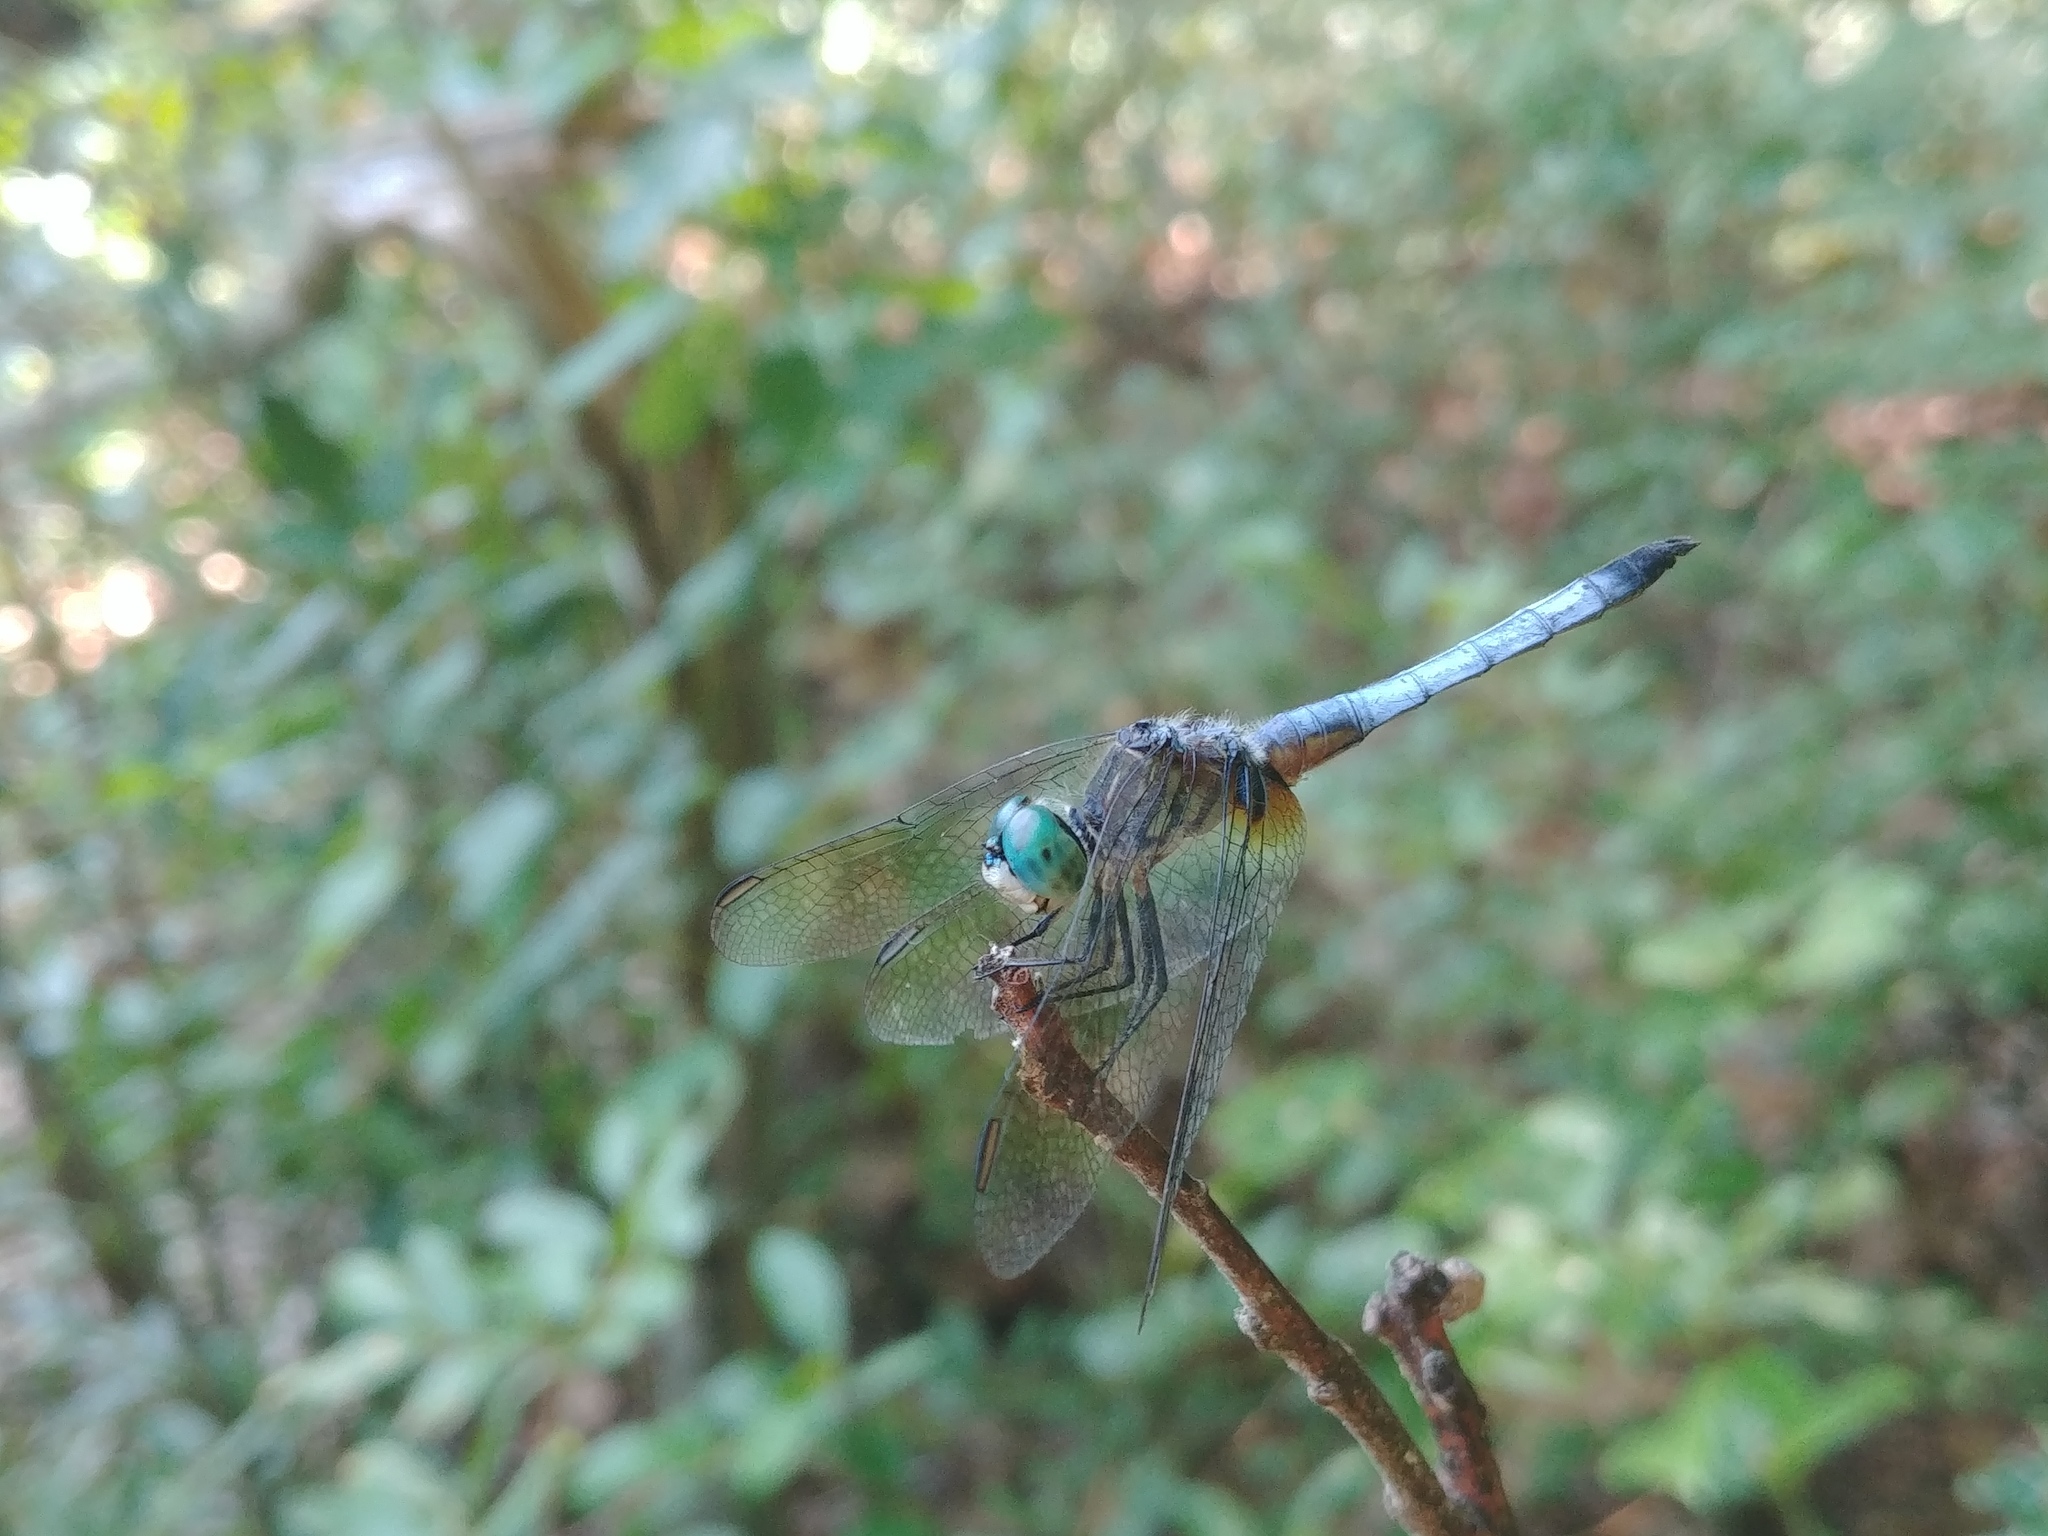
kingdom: Animalia
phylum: Arthropoda
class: Insecta
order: Odonata
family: Libellulidae
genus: Pachydiplax
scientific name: Pachydiplax longipennis
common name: Blue dasher
